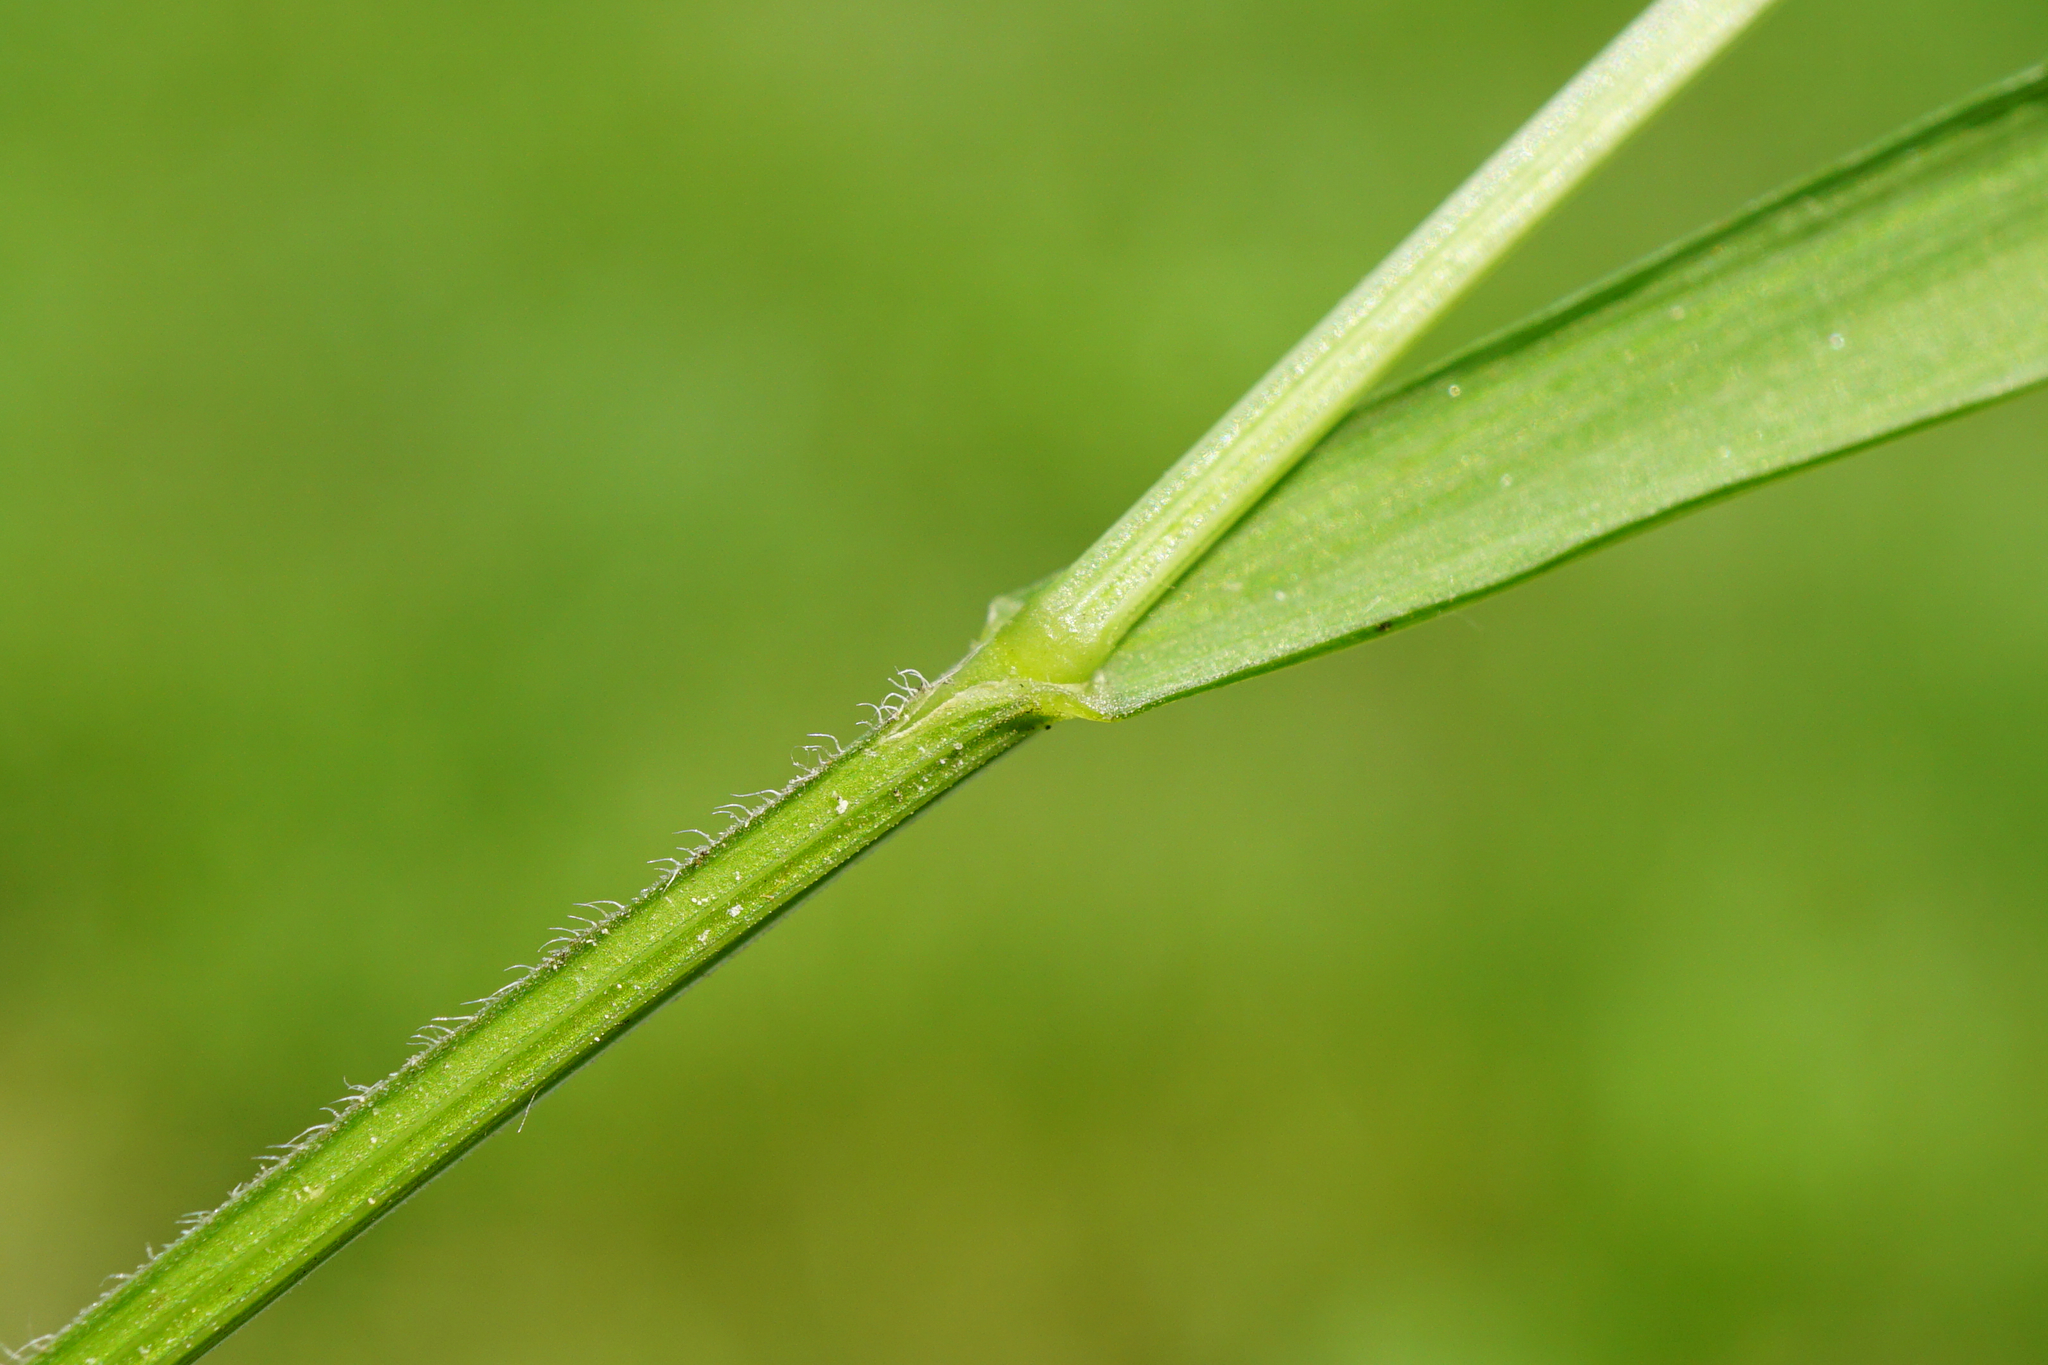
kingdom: Plantae
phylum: Tracheophyta
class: Liliopsida
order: Poales
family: Poaceae
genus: Melica
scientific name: Melica nutans
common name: Mountain melick
